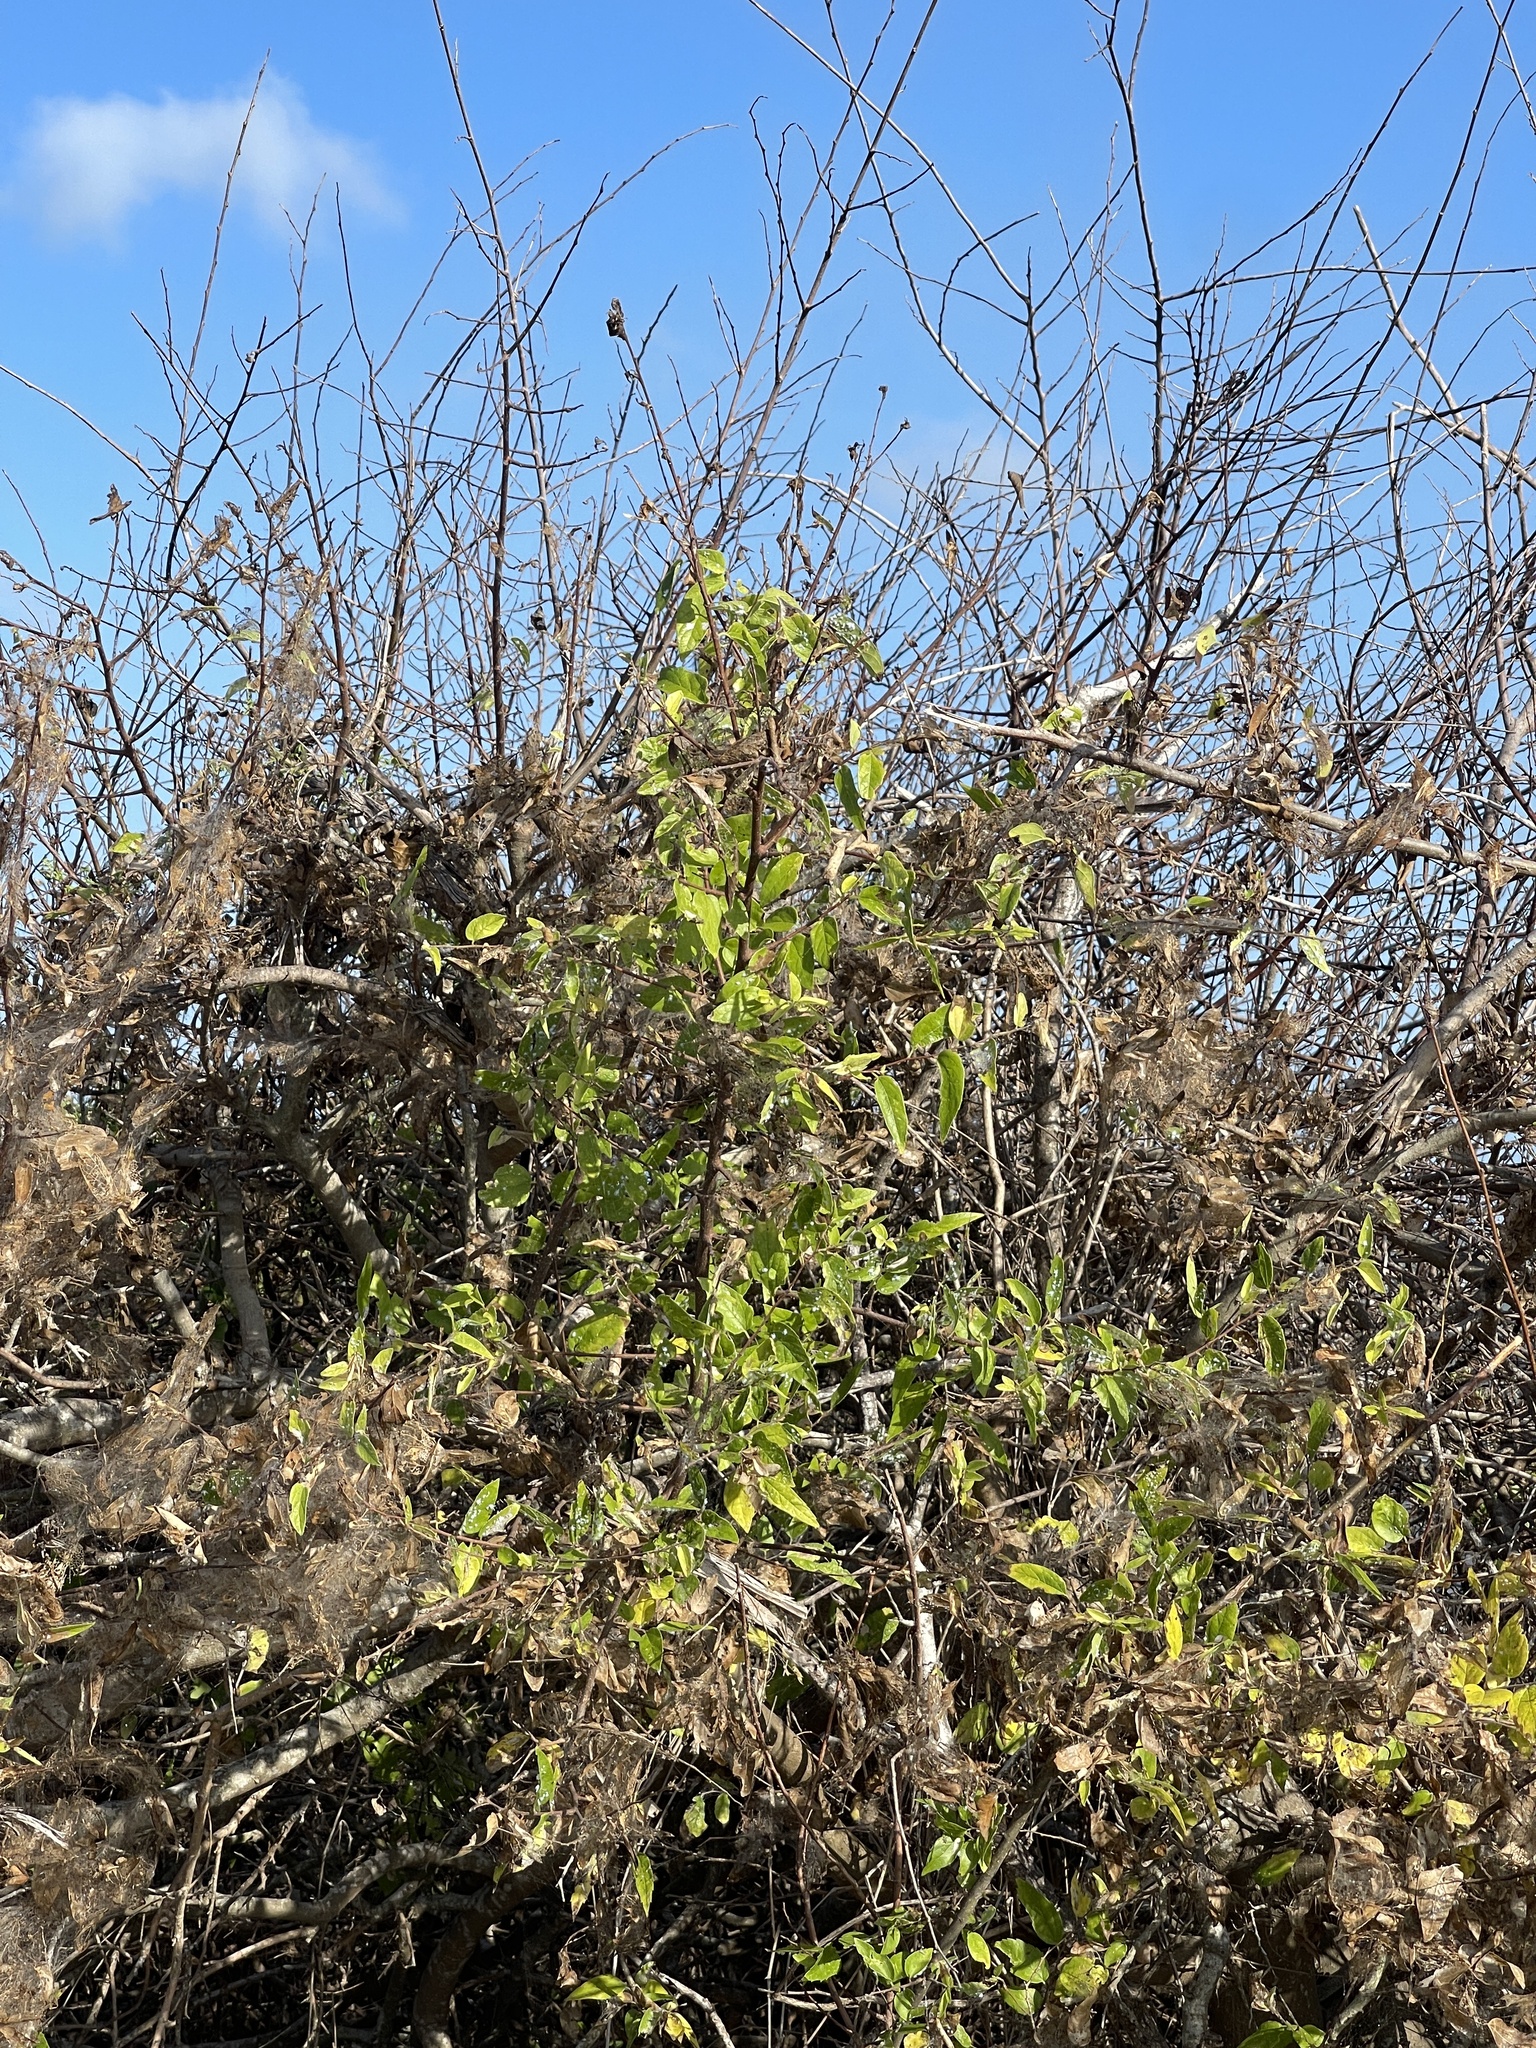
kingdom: Plantae
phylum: Tracheophyta
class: Magnoliopsida
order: Rosales
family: Cannabaceae
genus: Celtis
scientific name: Celtis laevigata
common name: Sugarberry
